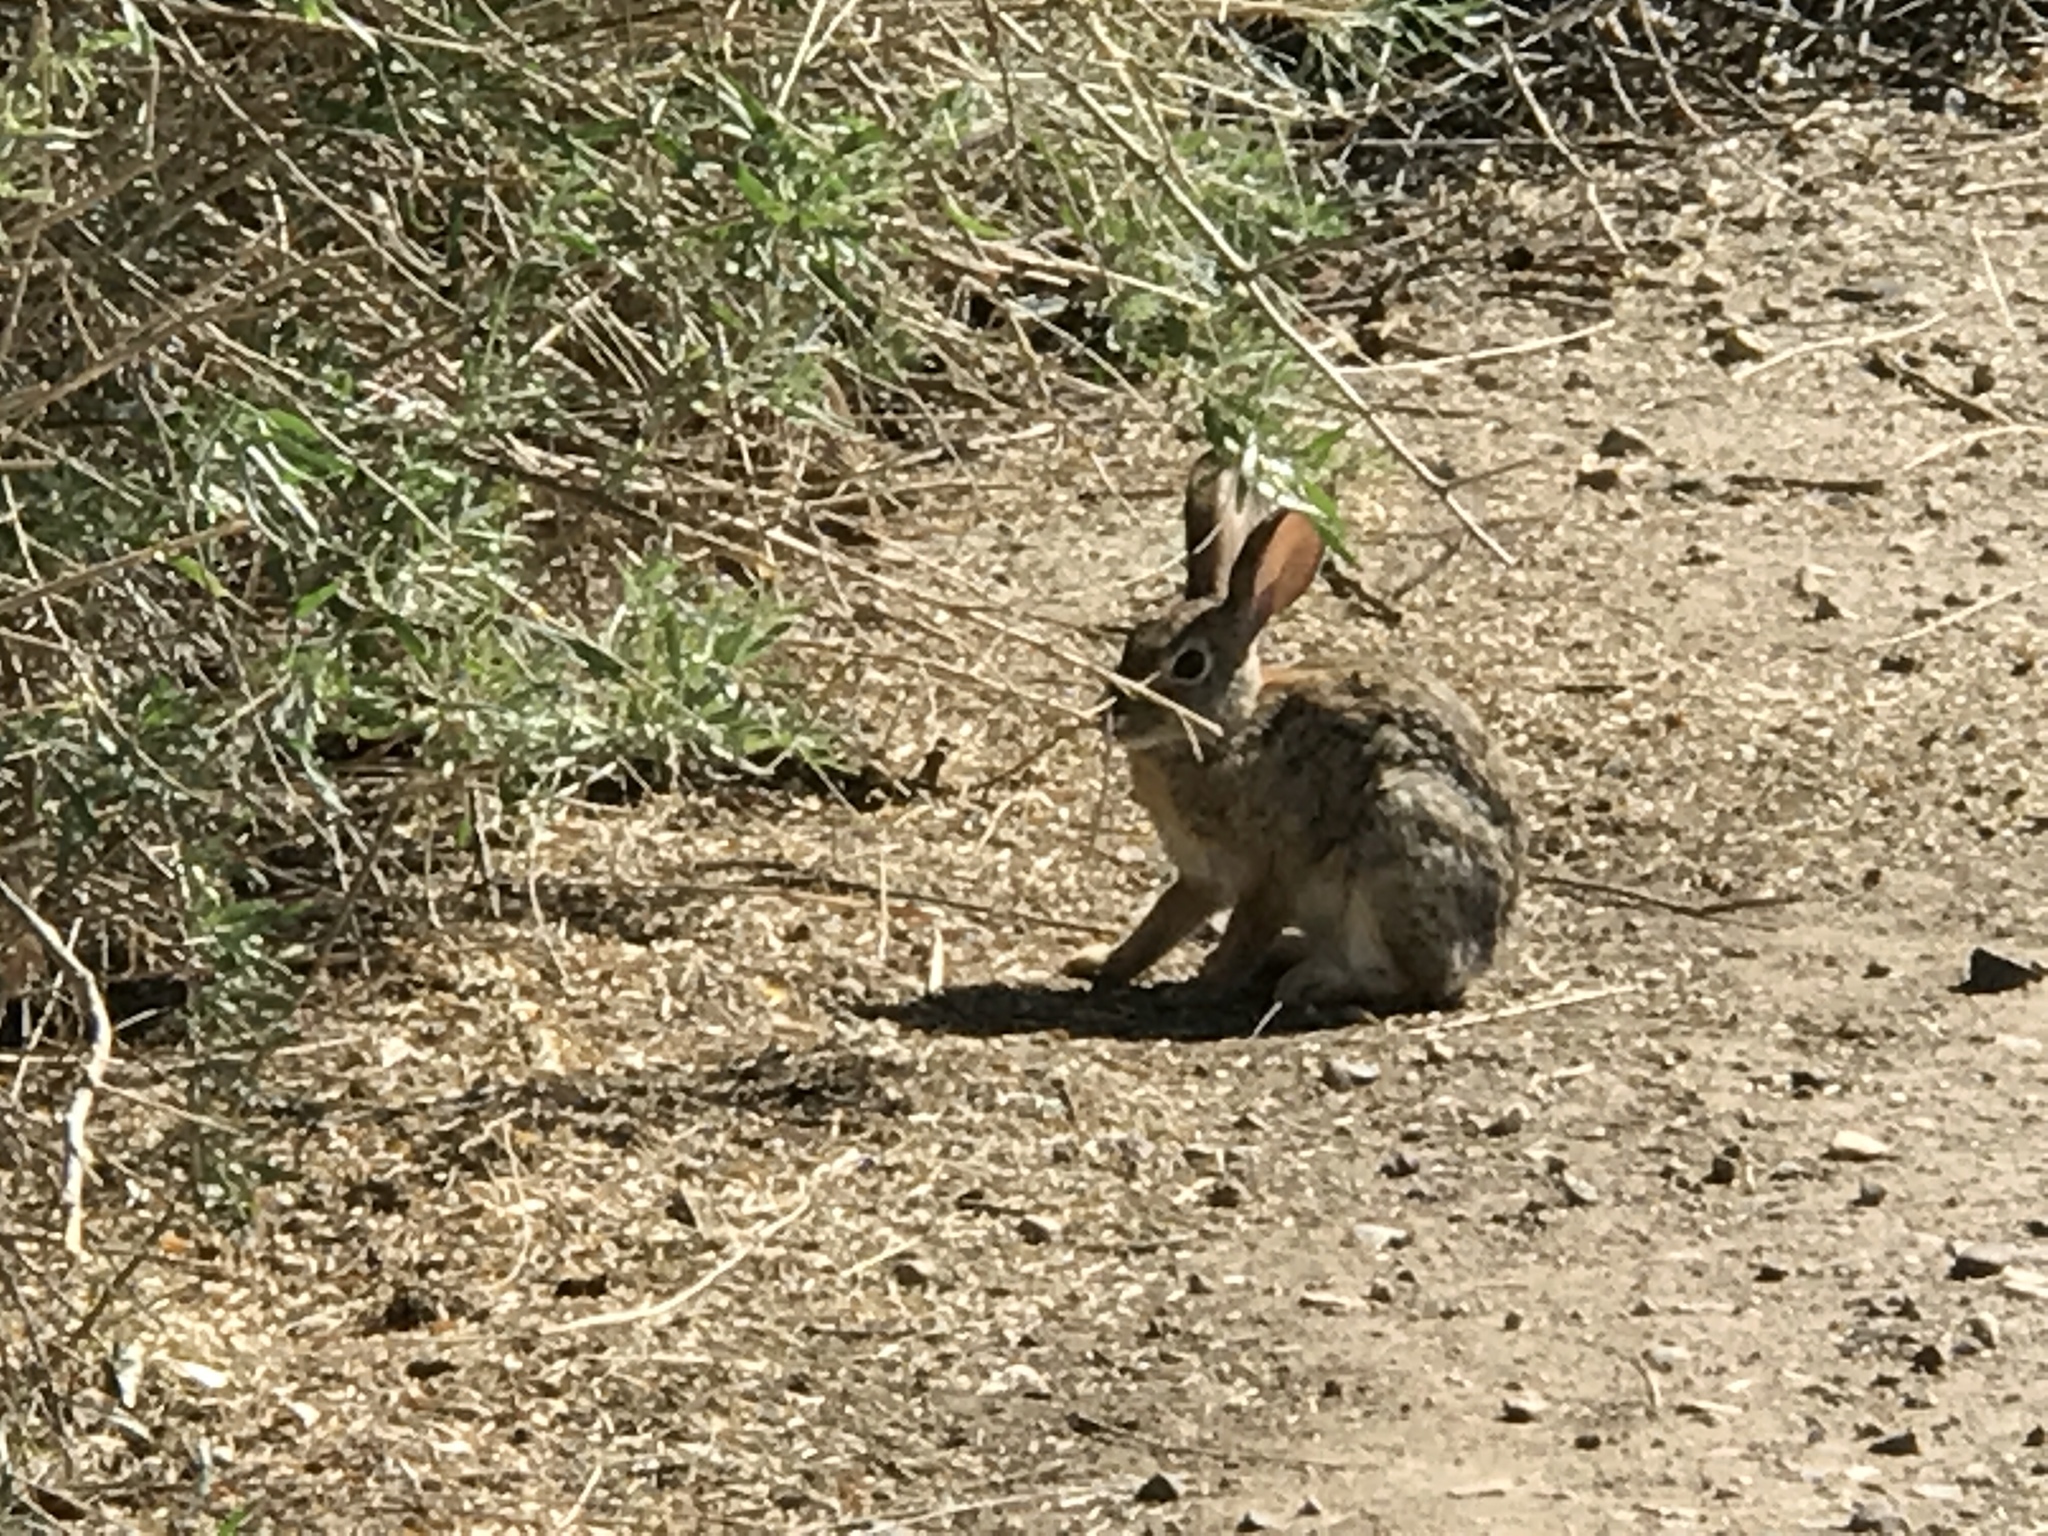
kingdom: Animalia
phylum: Chordata
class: Mammalia
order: Lagomorpha
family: Leporidae
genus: Sylvilagus
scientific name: Sylvilagus audubonii
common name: Desert cottontail
